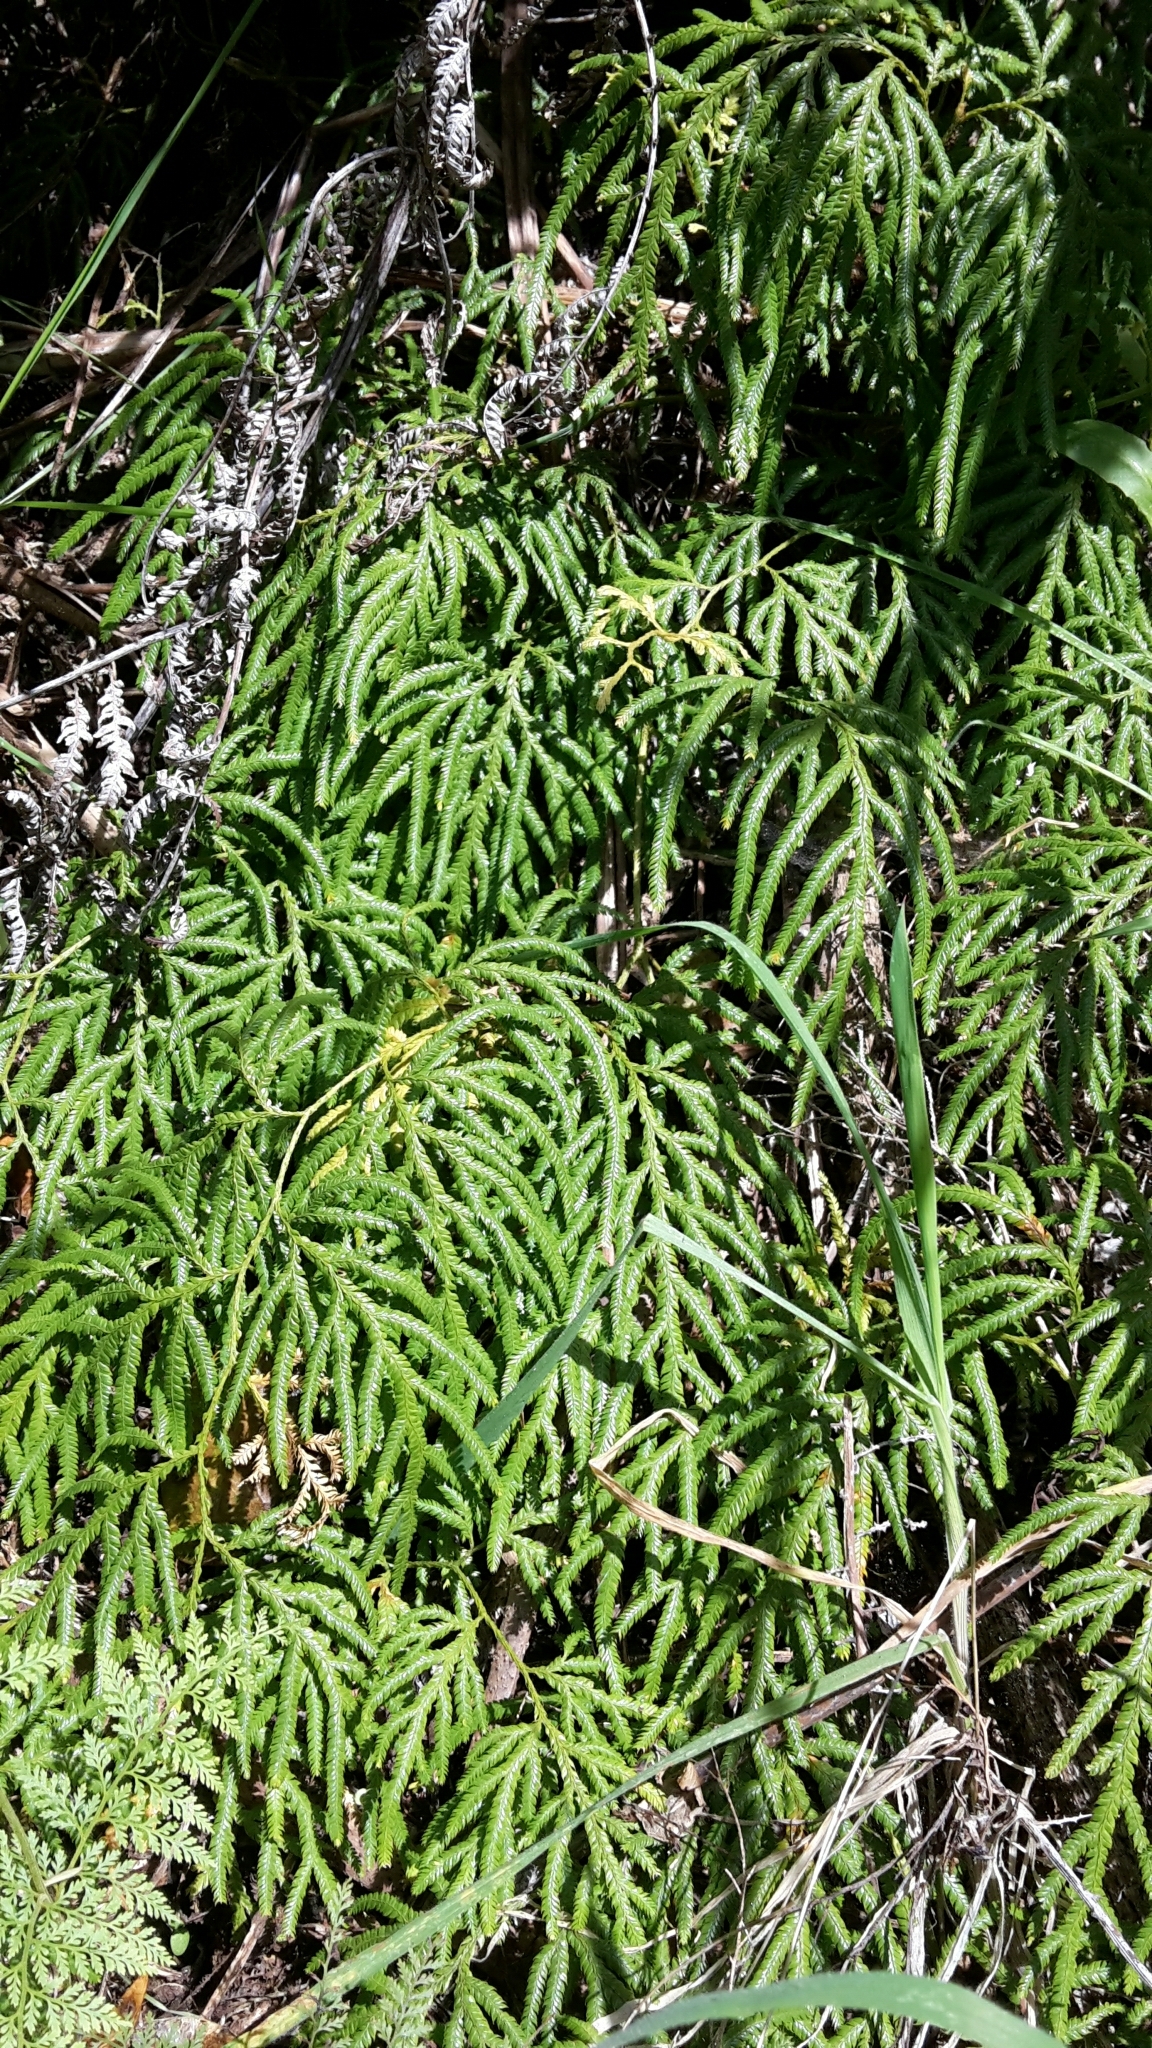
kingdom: Plantae
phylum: Tracheophyta
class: Lycopodiopsida
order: Lycopodiales
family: Lycopodiaceae
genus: Lycopodium
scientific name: Lycopodium volubile
